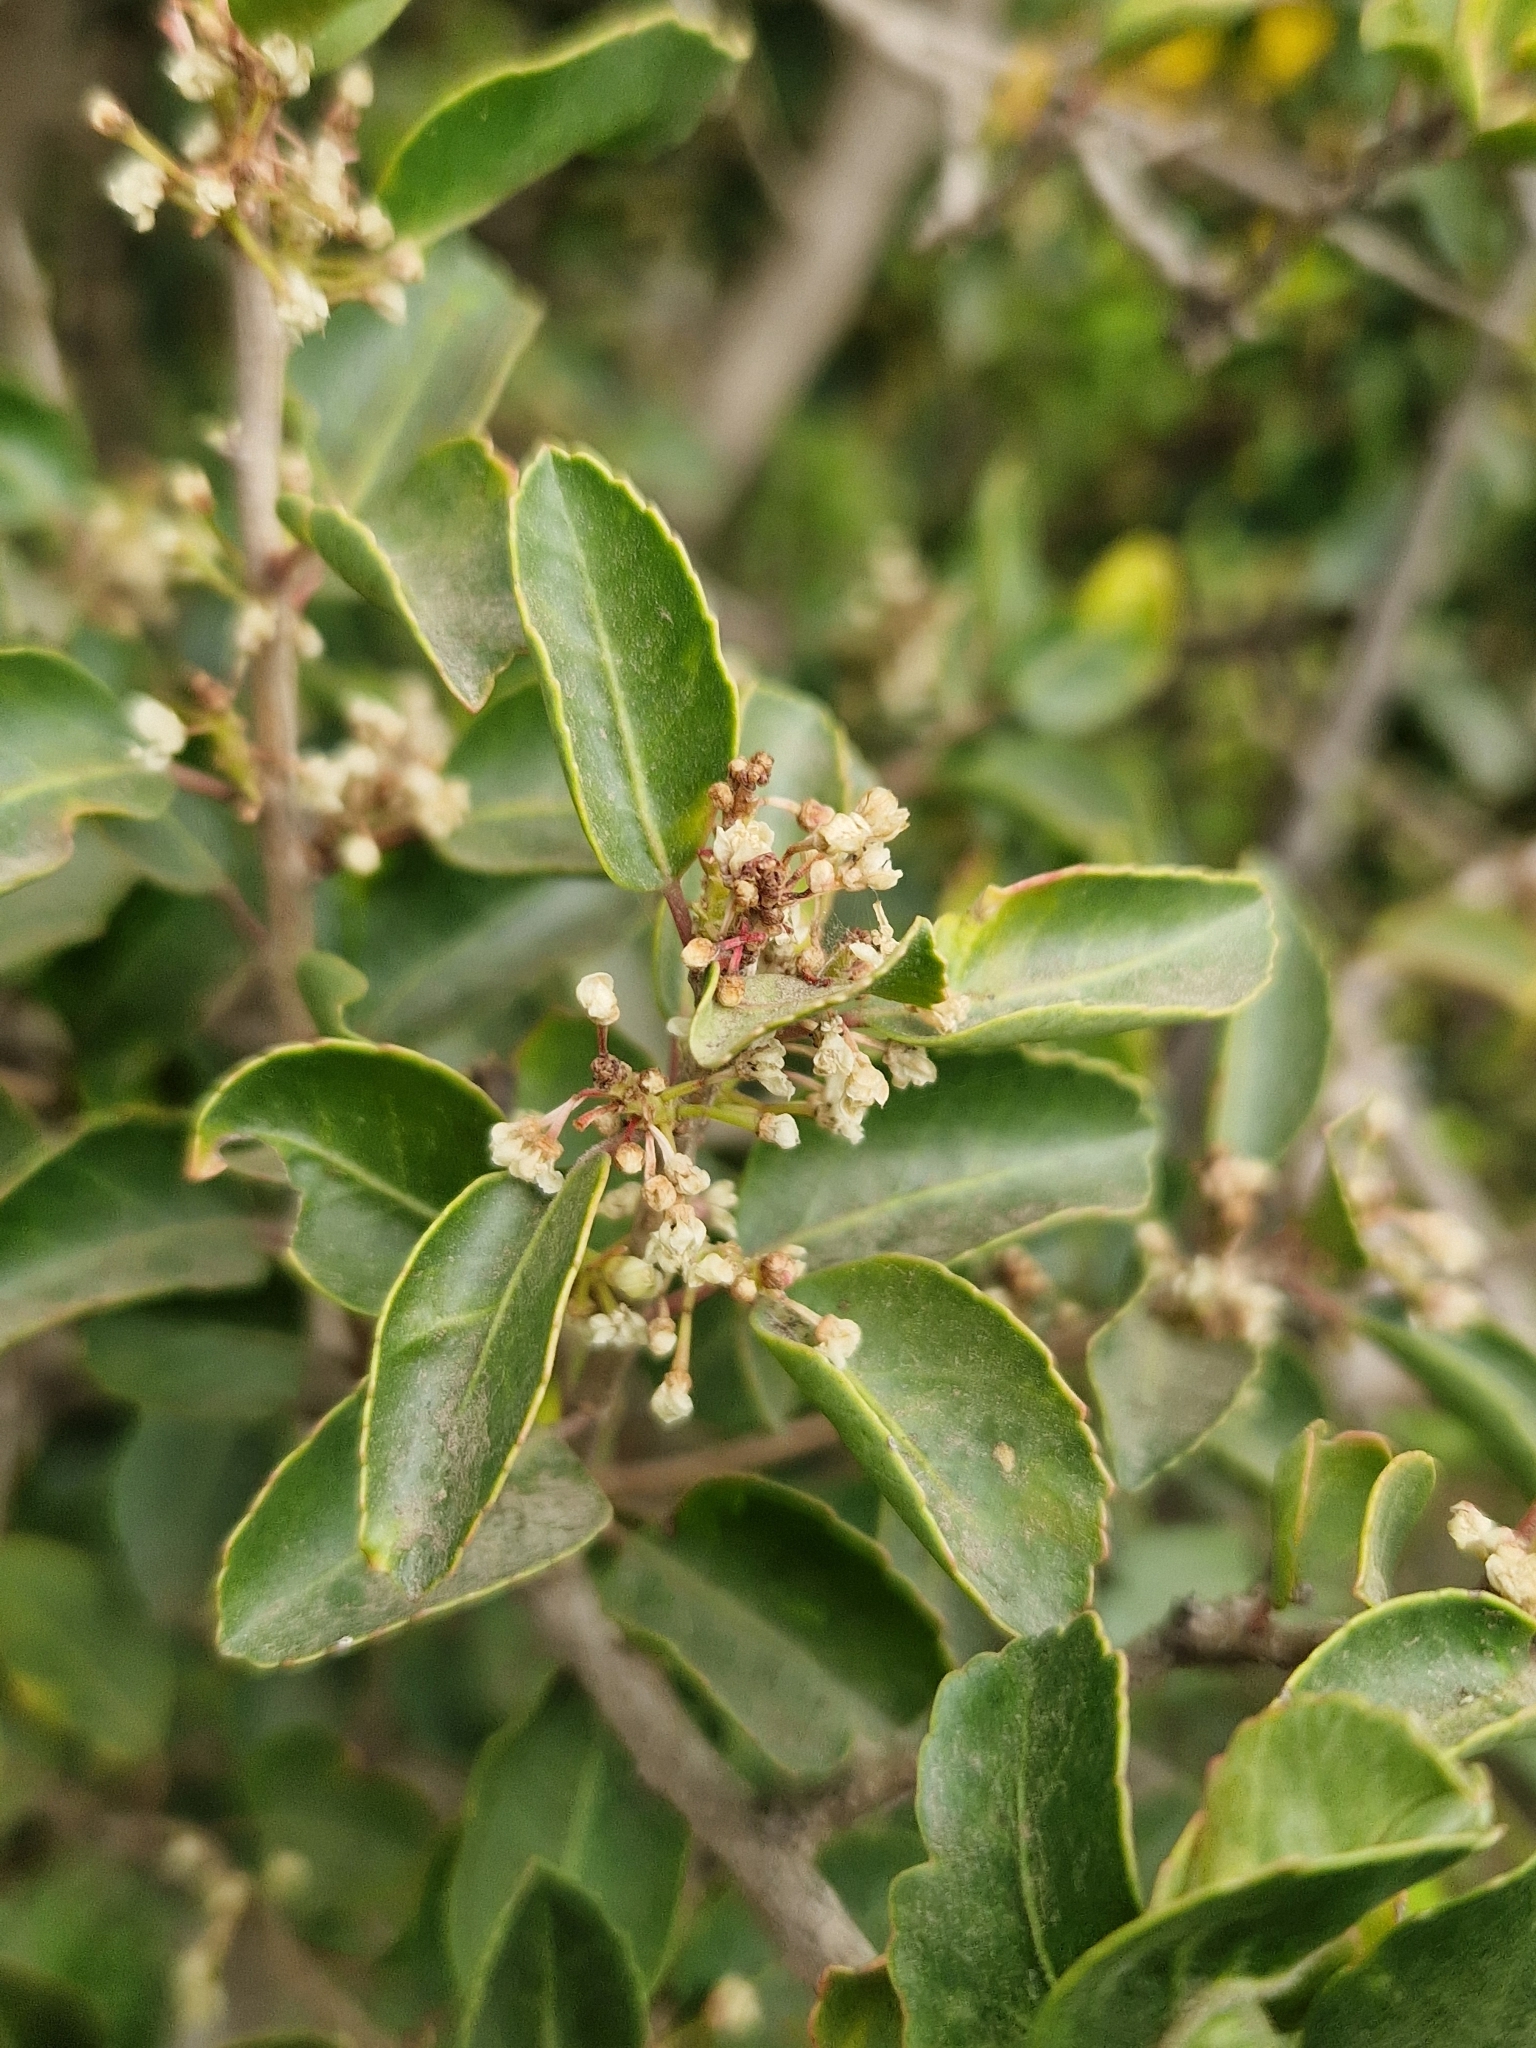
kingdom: Plantae
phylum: Tracheophyta
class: Magnoliopsida
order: Sapindales
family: Anacardiaceae
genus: Schinus
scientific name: Schinus patagonica
